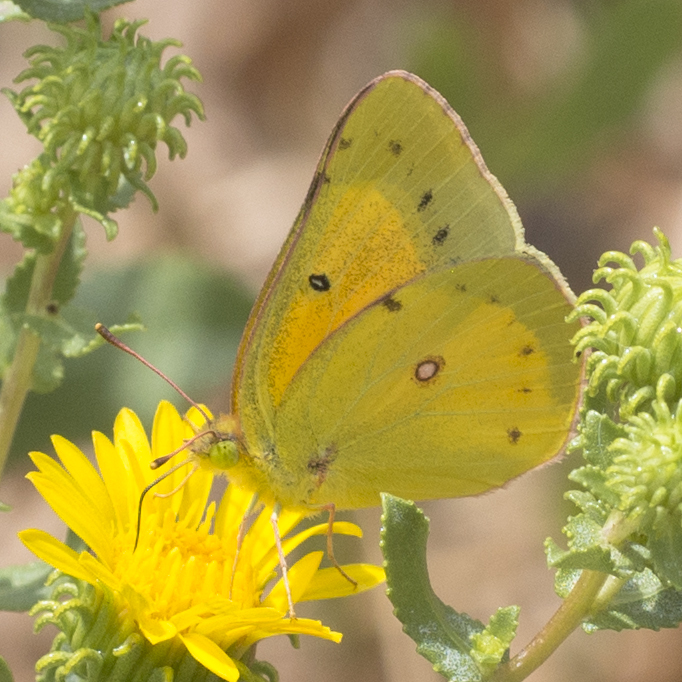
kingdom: Animalia
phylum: Arthropoda
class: Insecta
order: Lepidoptera
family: Pieridae
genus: Colias
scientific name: Colias eurytheme
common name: Alfalfa butterfly
